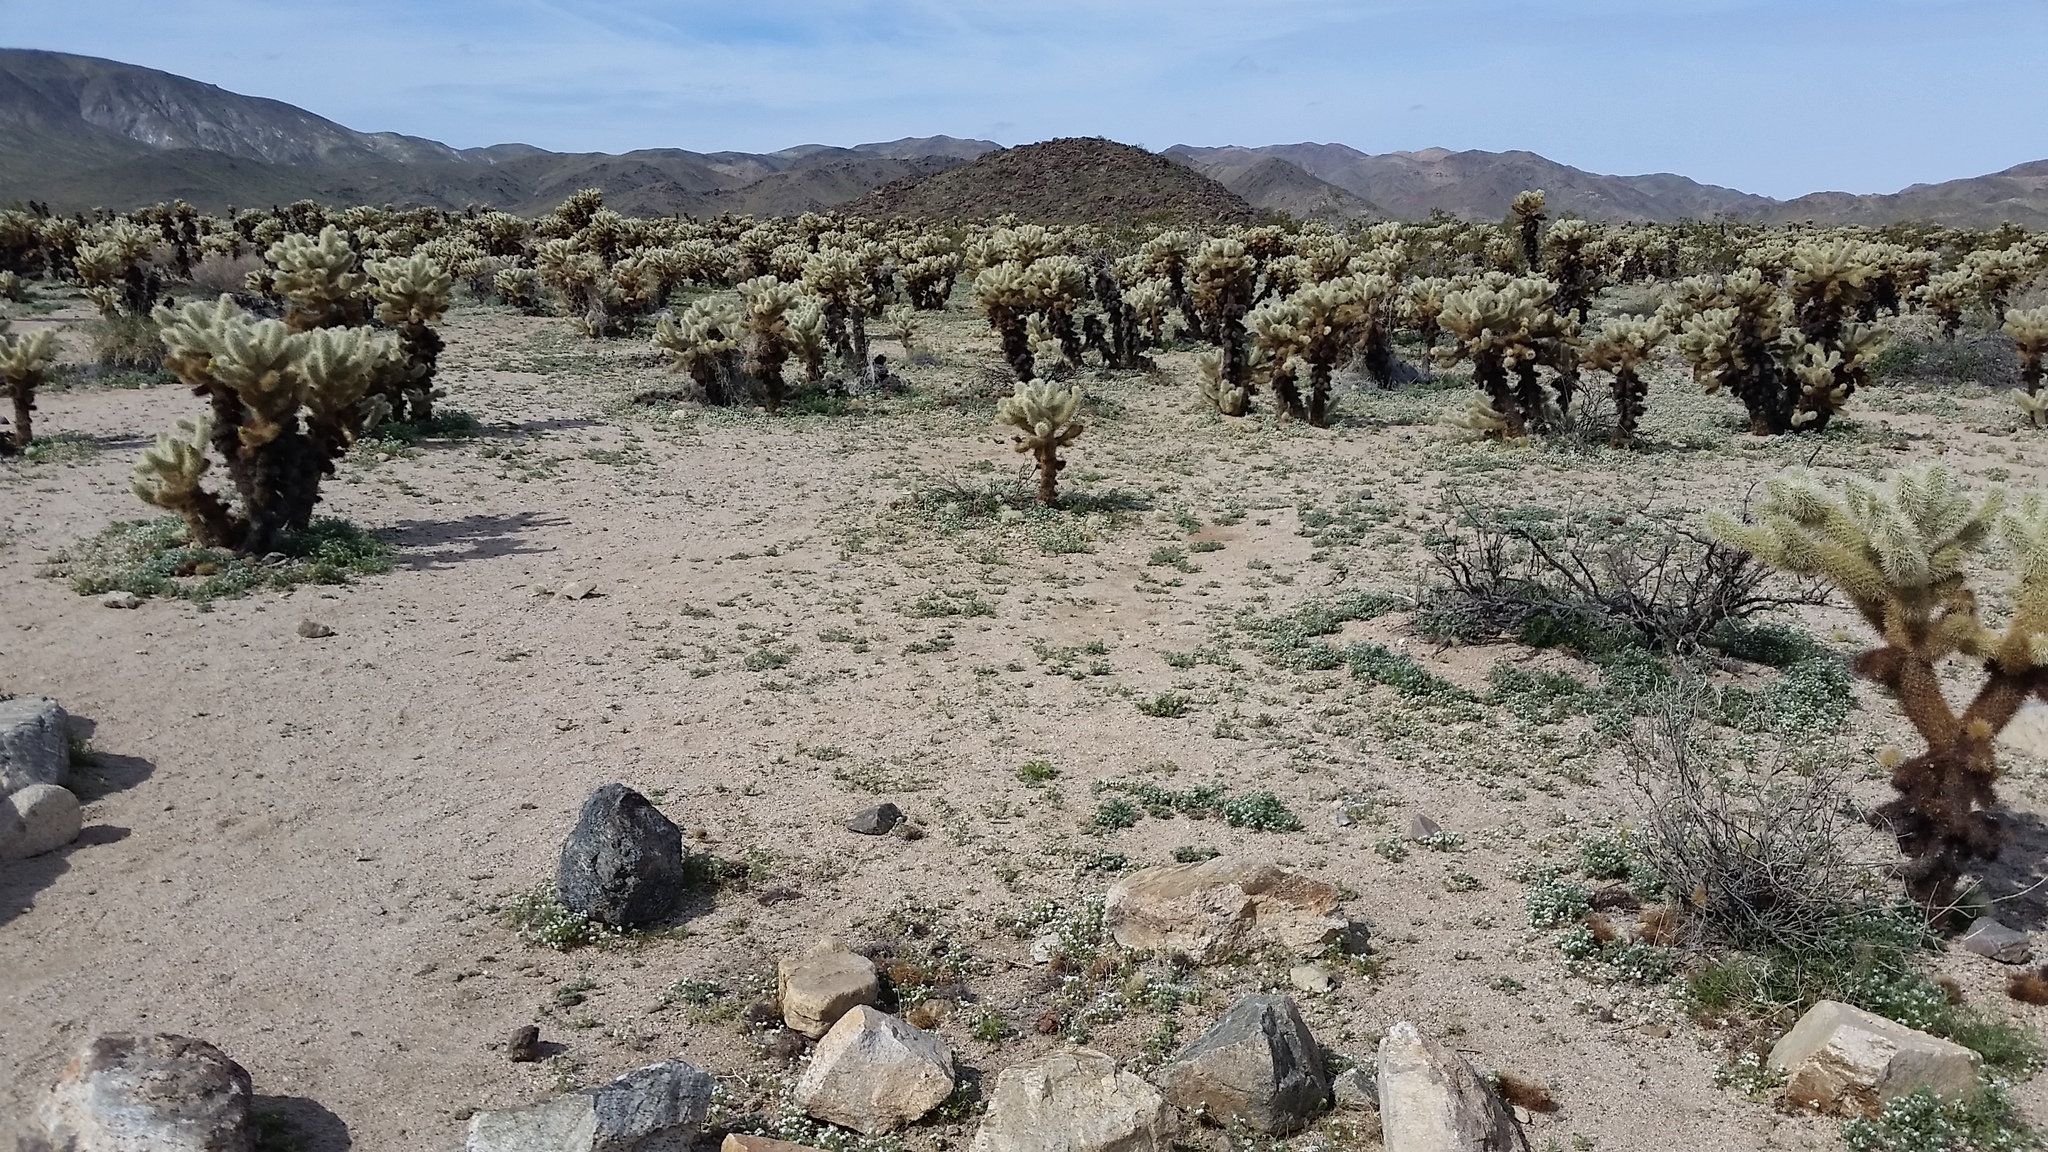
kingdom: Plantae
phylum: Tracheophyta
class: Magnoliopsida
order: Caryophyllales
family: Cactaceae
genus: Cylindropuntia
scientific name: Cylindropuntia fosbergii
